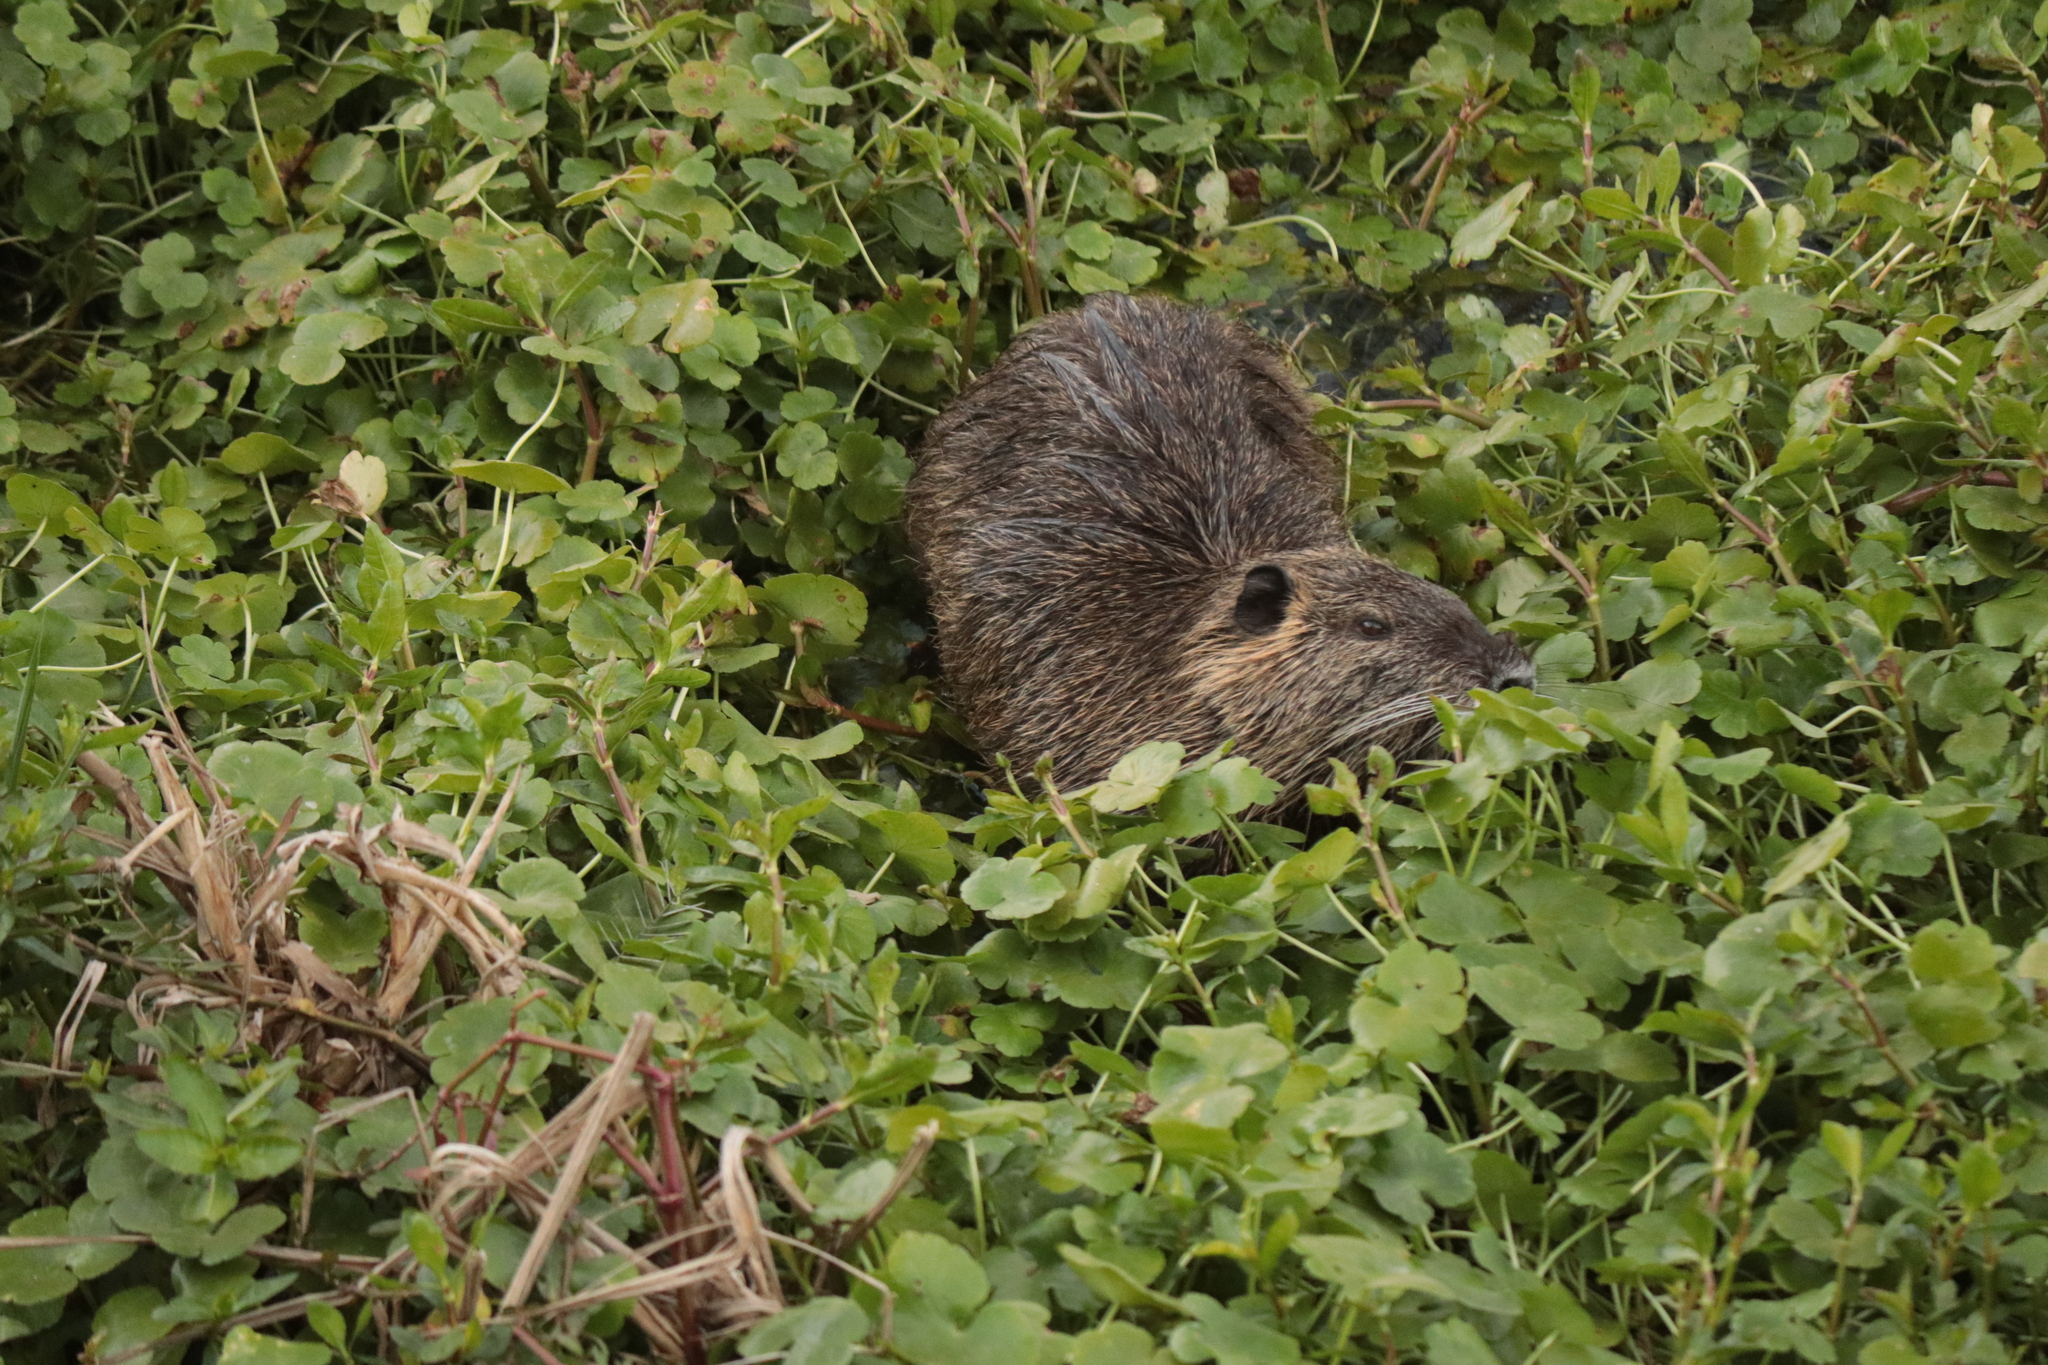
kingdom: Animalia
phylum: Chordata
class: Mammalia
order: Rodentia
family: Myocastoridae
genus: Myocastor
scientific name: Myocastor coypus
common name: Coypu
